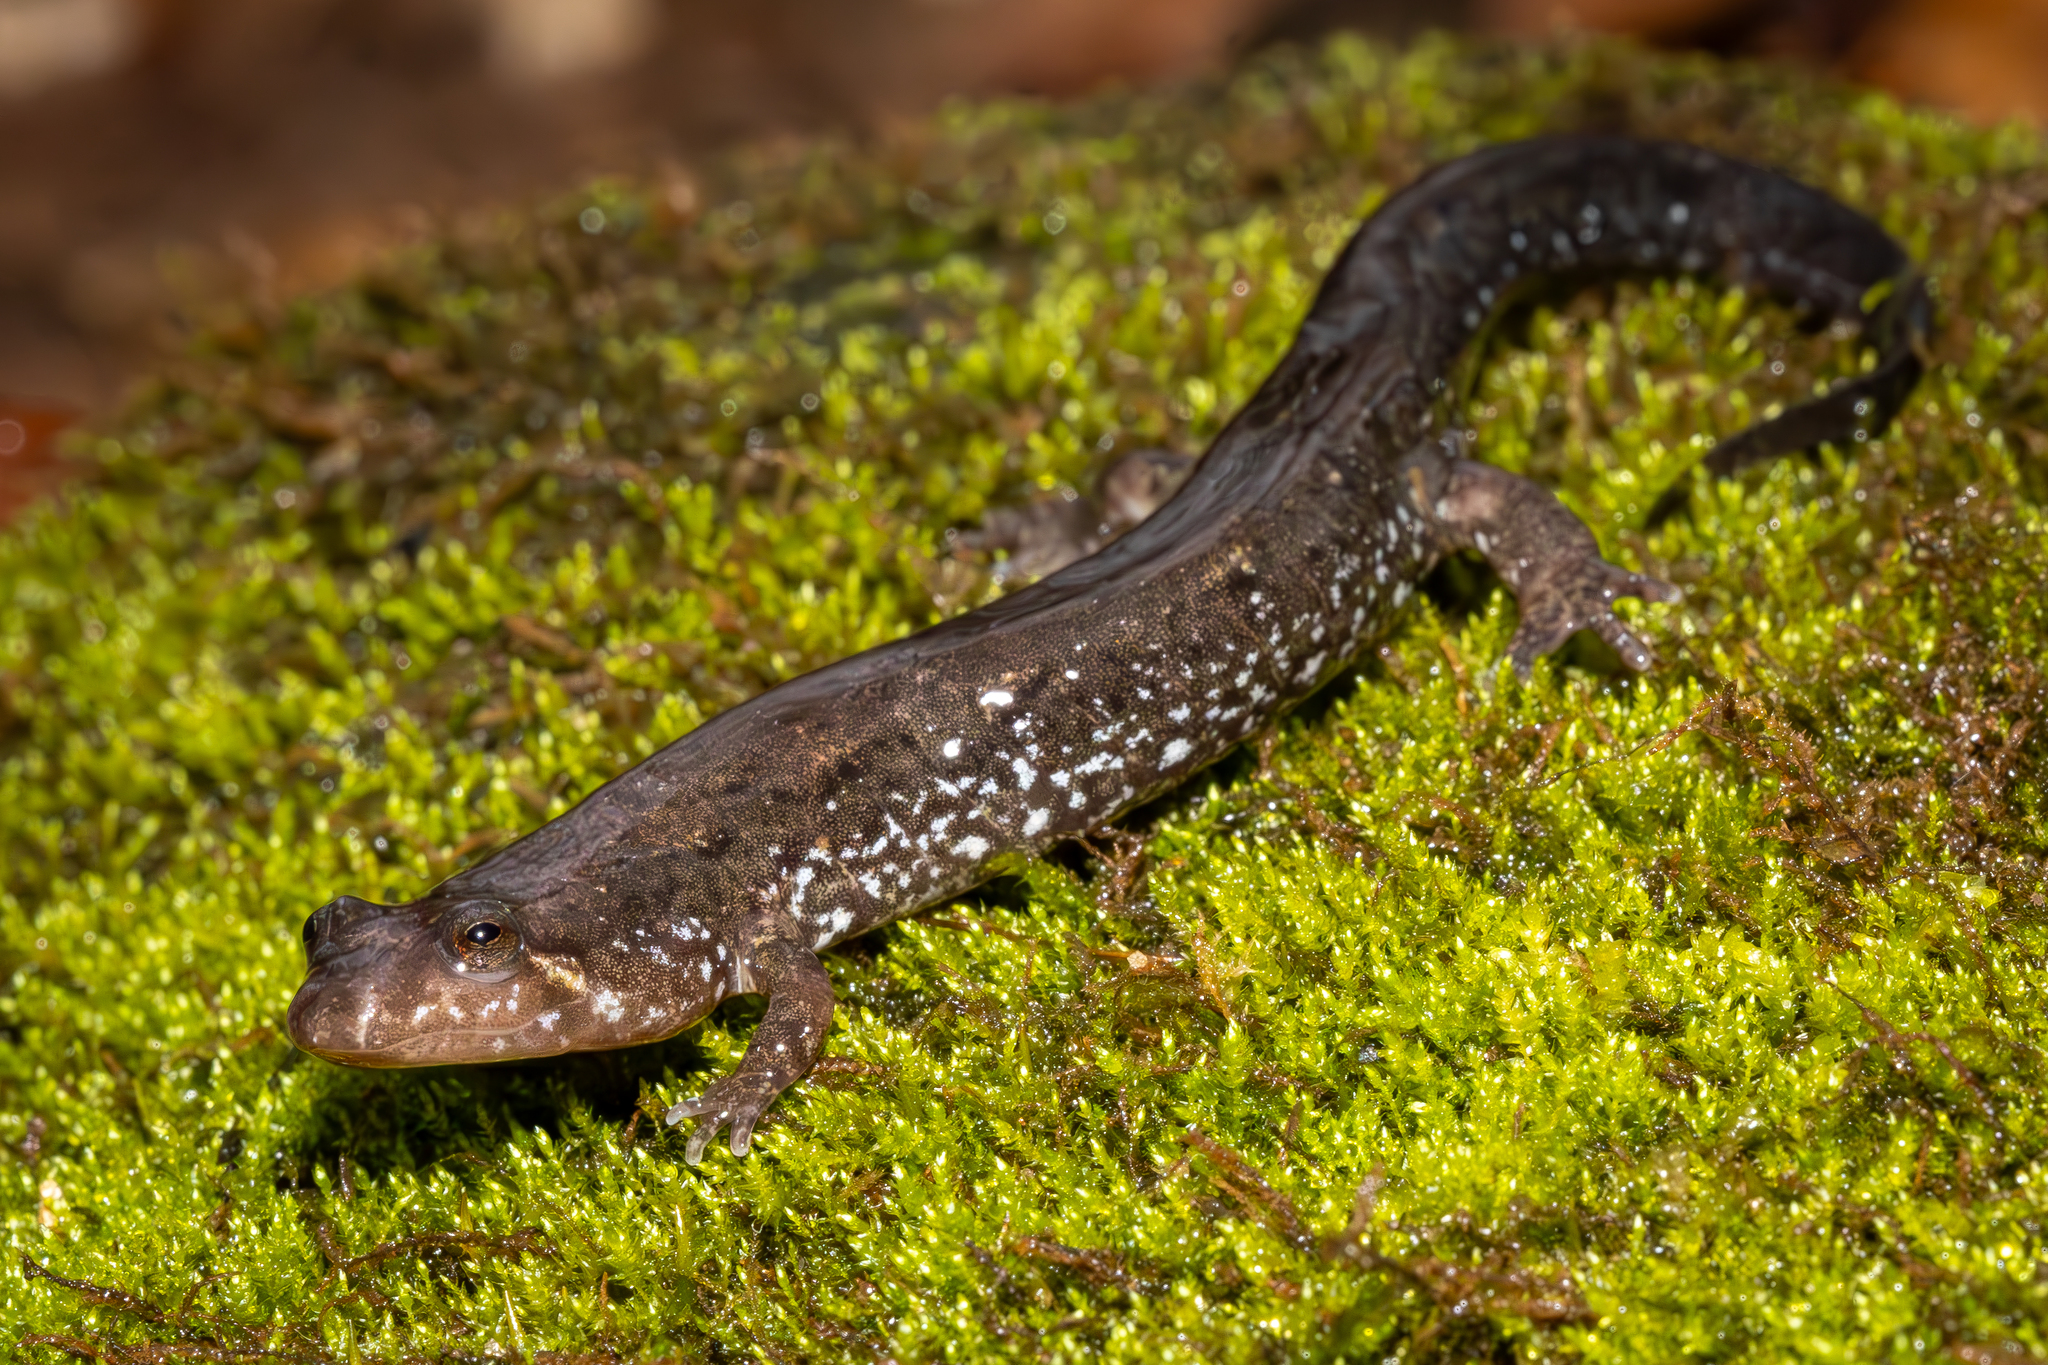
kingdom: Animalia
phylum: Chordata
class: Amphibia
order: Caudata
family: Plethodontidae
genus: Desmognathus
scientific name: Desmognathus conanti
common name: Spotted dusky salamander
